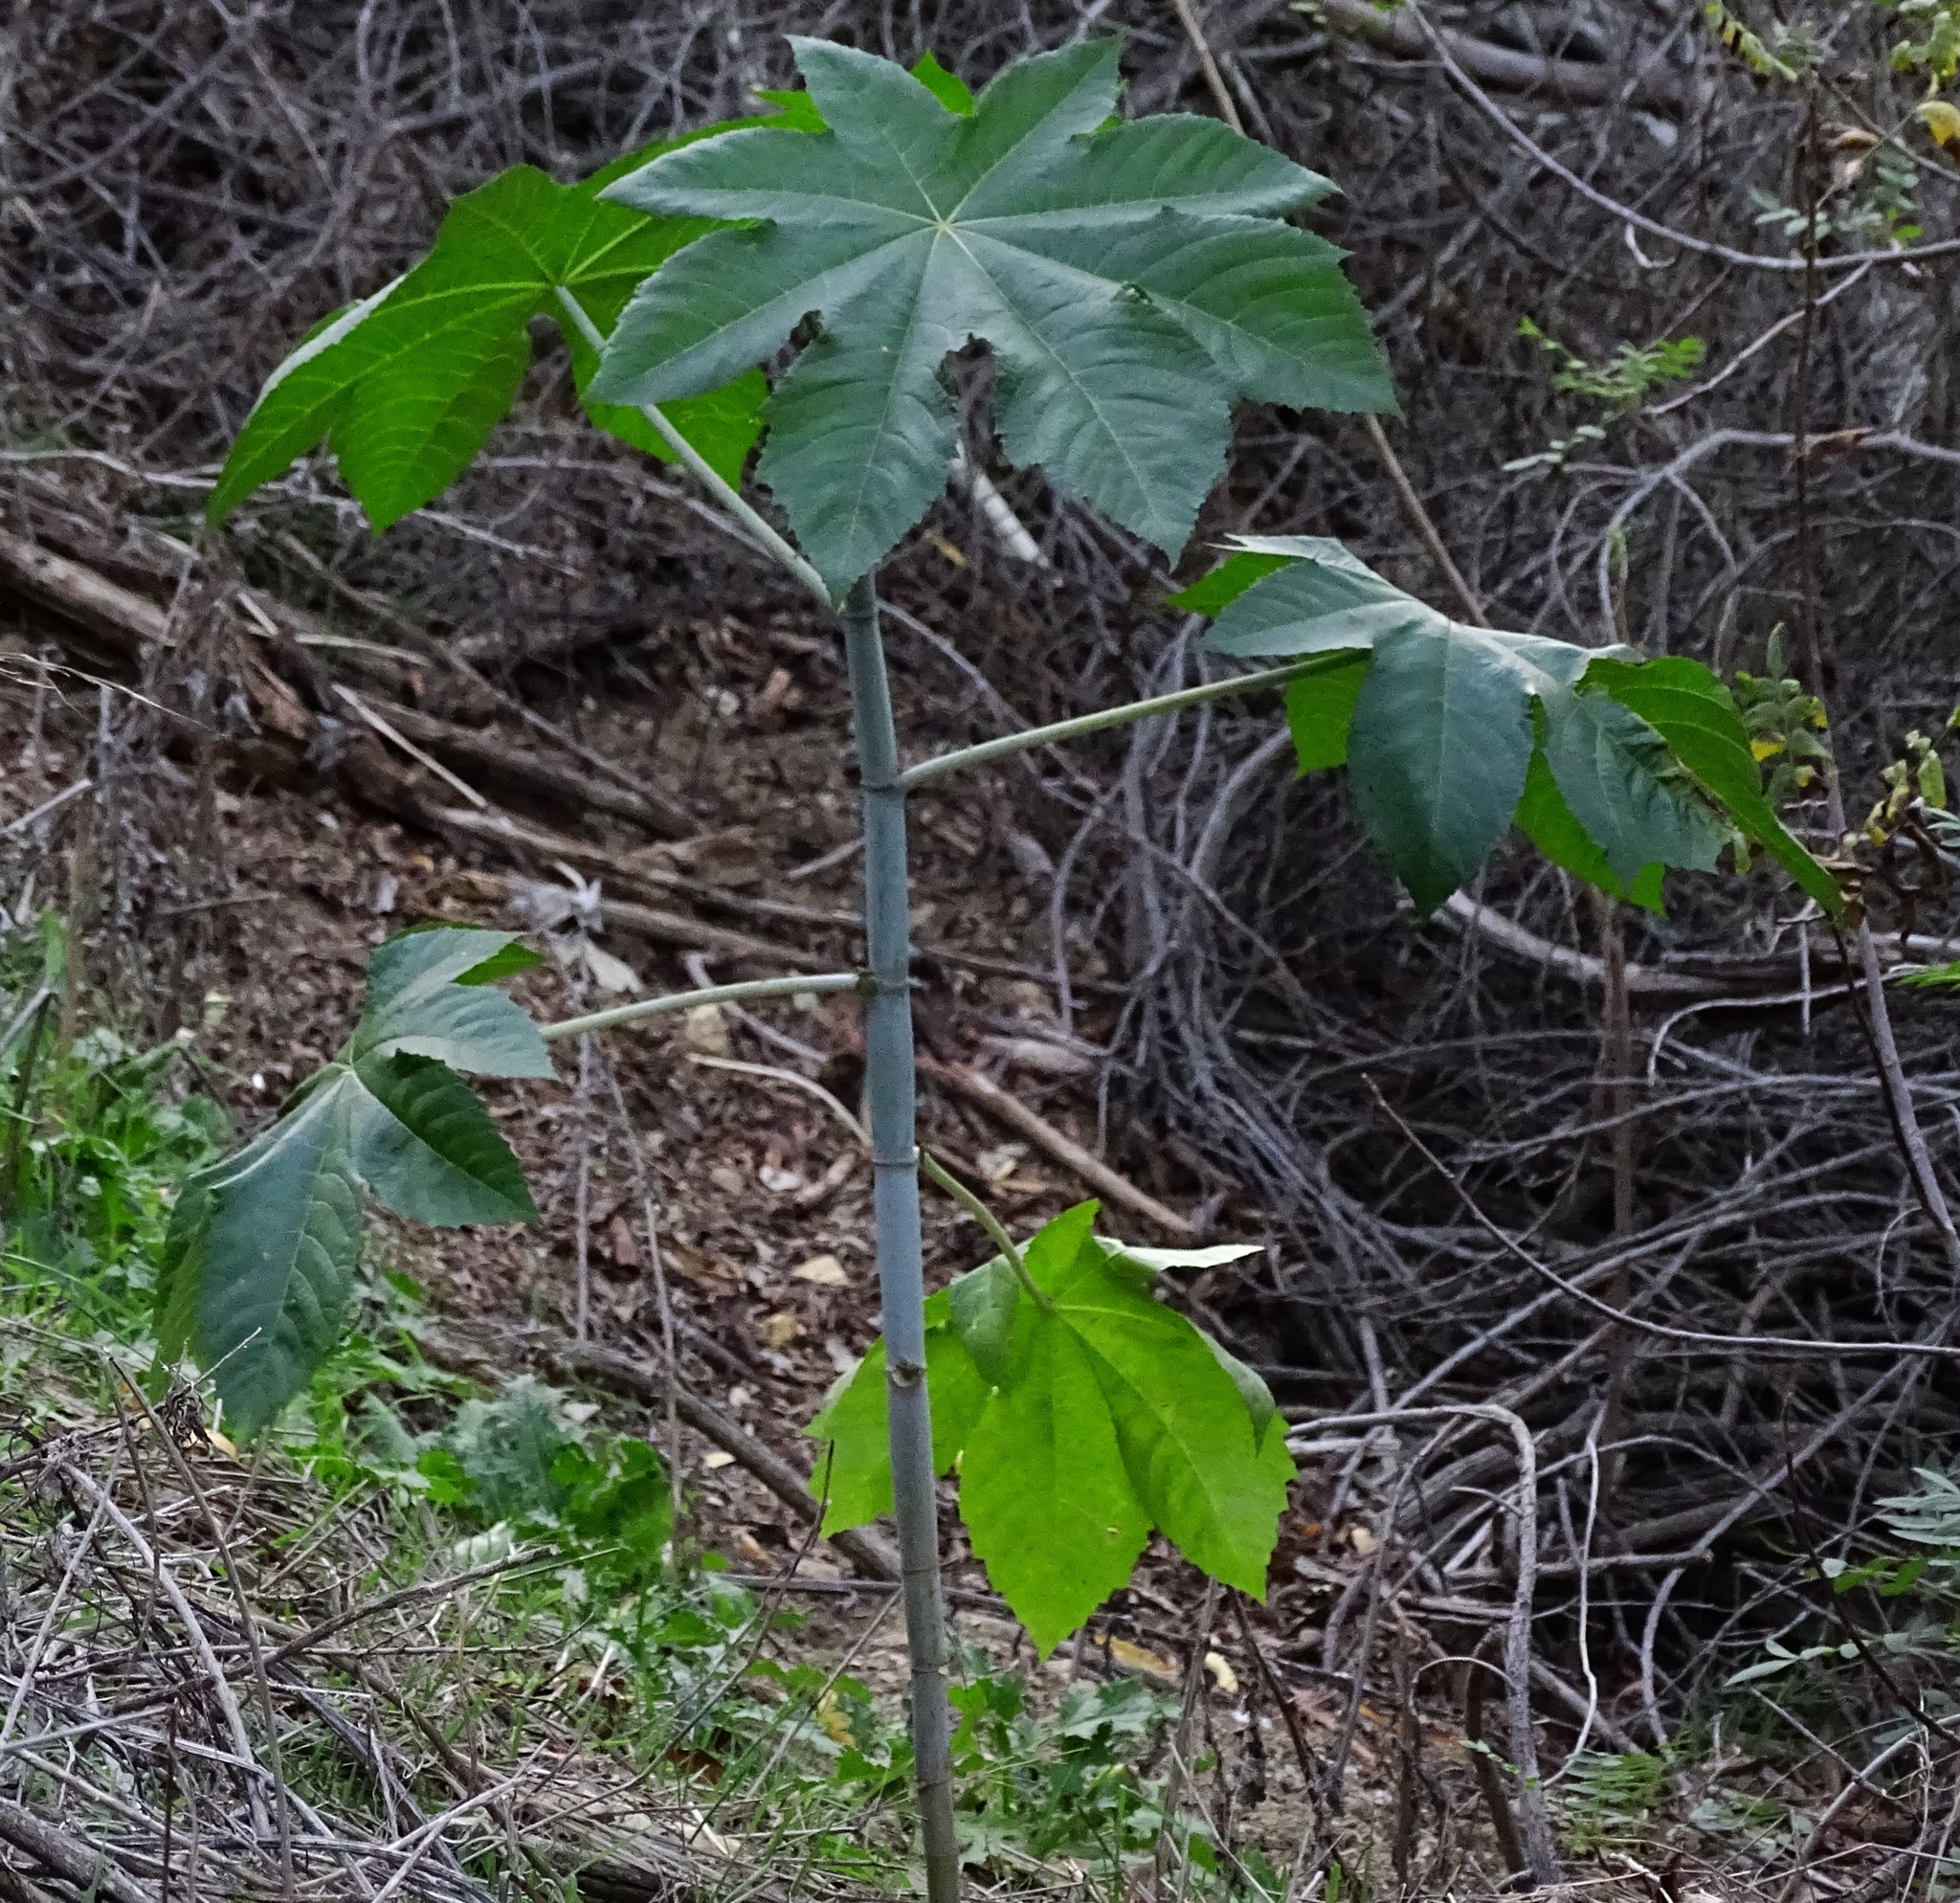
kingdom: Plantae
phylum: Tracheophyta
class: Magnoliopsida
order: Malpighiales
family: Euphorbiaceae
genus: Ricinus
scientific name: Ricinus communis
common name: Castor-oil-plant
